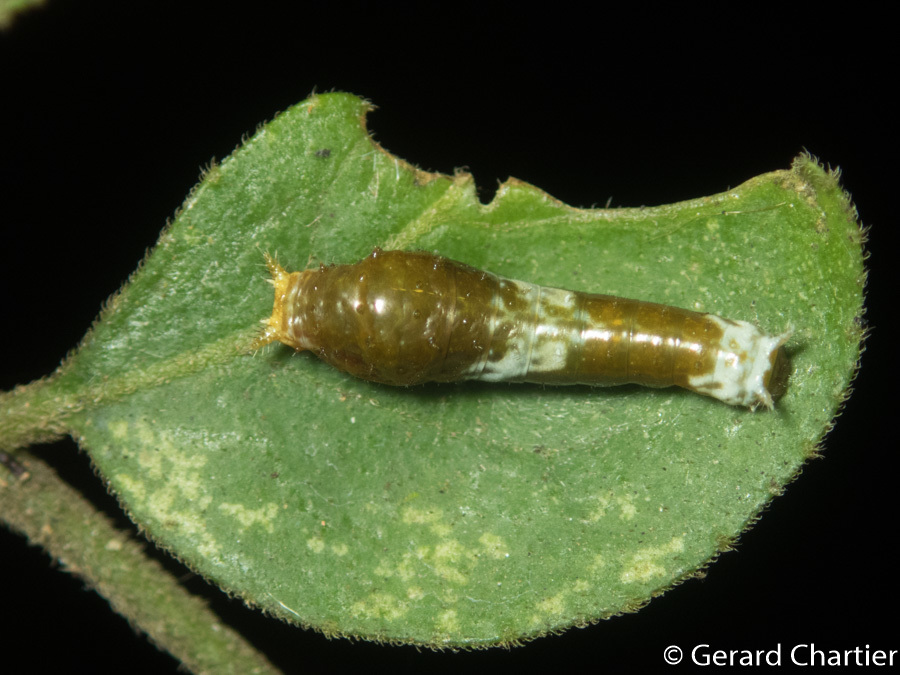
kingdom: Animalia
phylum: Arthropoda
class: Insecta
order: Lepidoptera
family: Papilionidae
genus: Papilio
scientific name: Papilio polytes
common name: Common mormon
